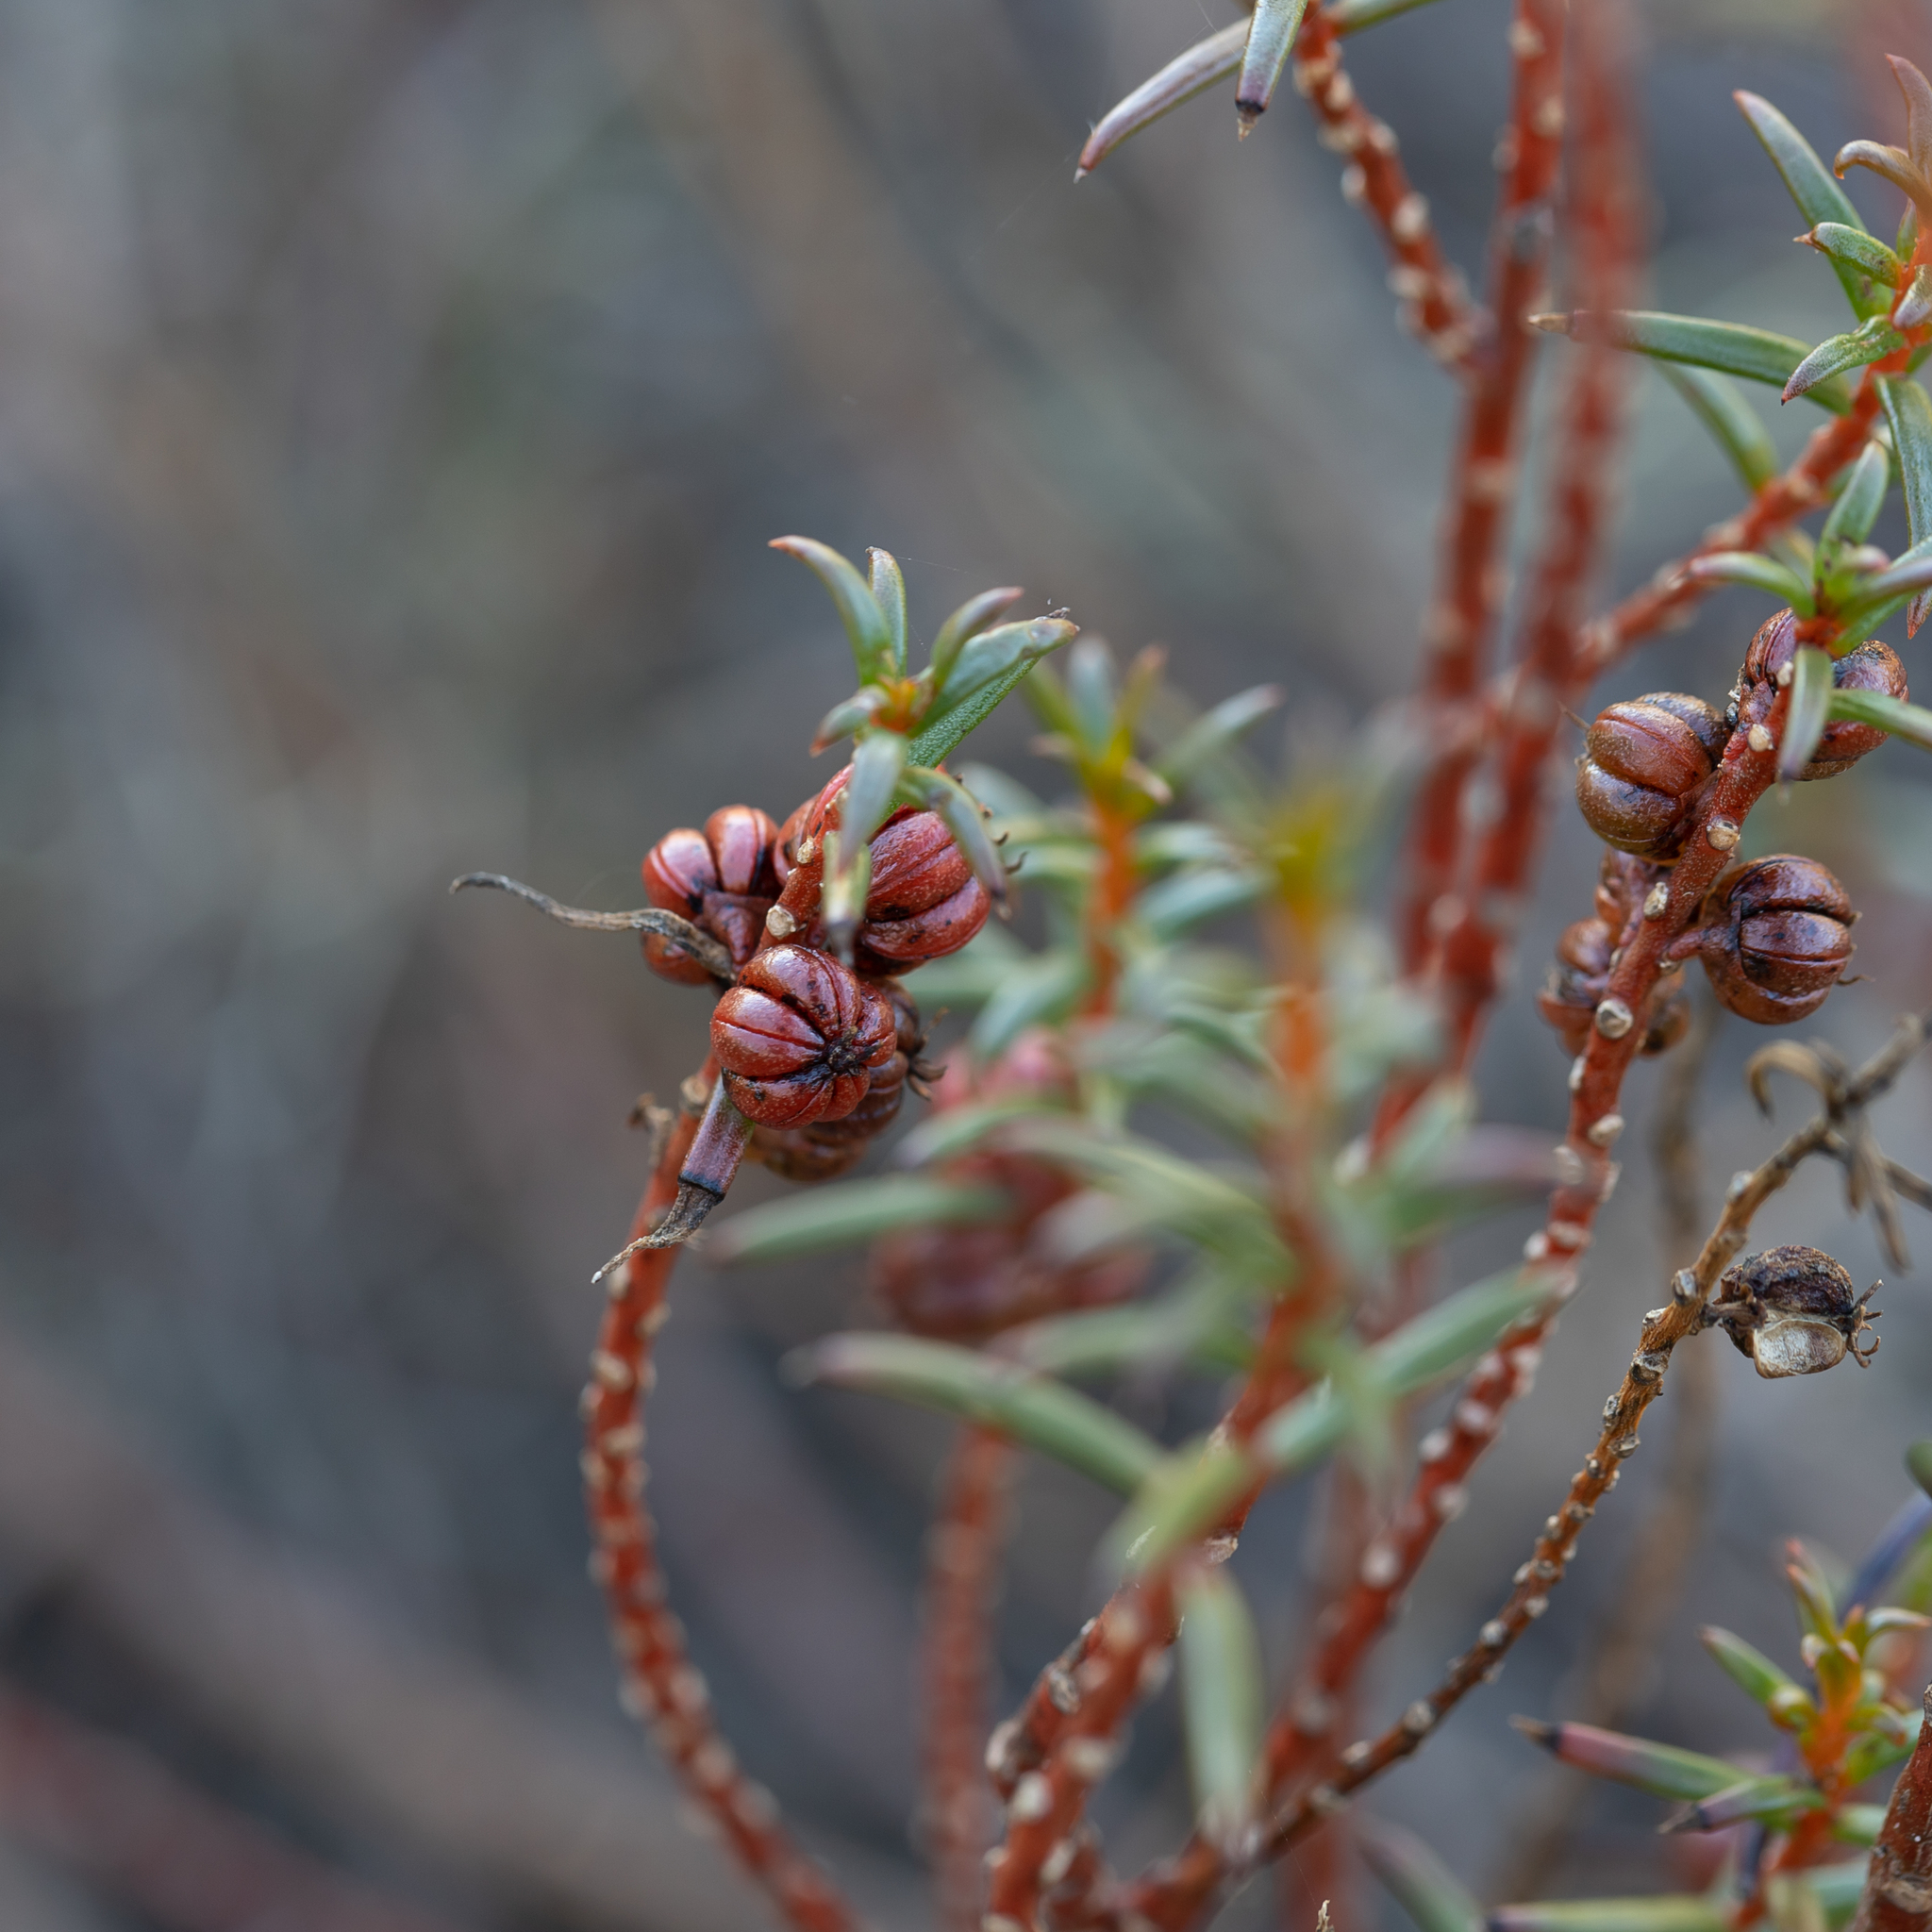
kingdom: Plantae
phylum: Tracheophyta
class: Magnoliopsida
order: Brassicales
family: Gyrostemonaceae
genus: Gyrostemon
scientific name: Gyrostemon australasicus
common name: Wheelfruit
